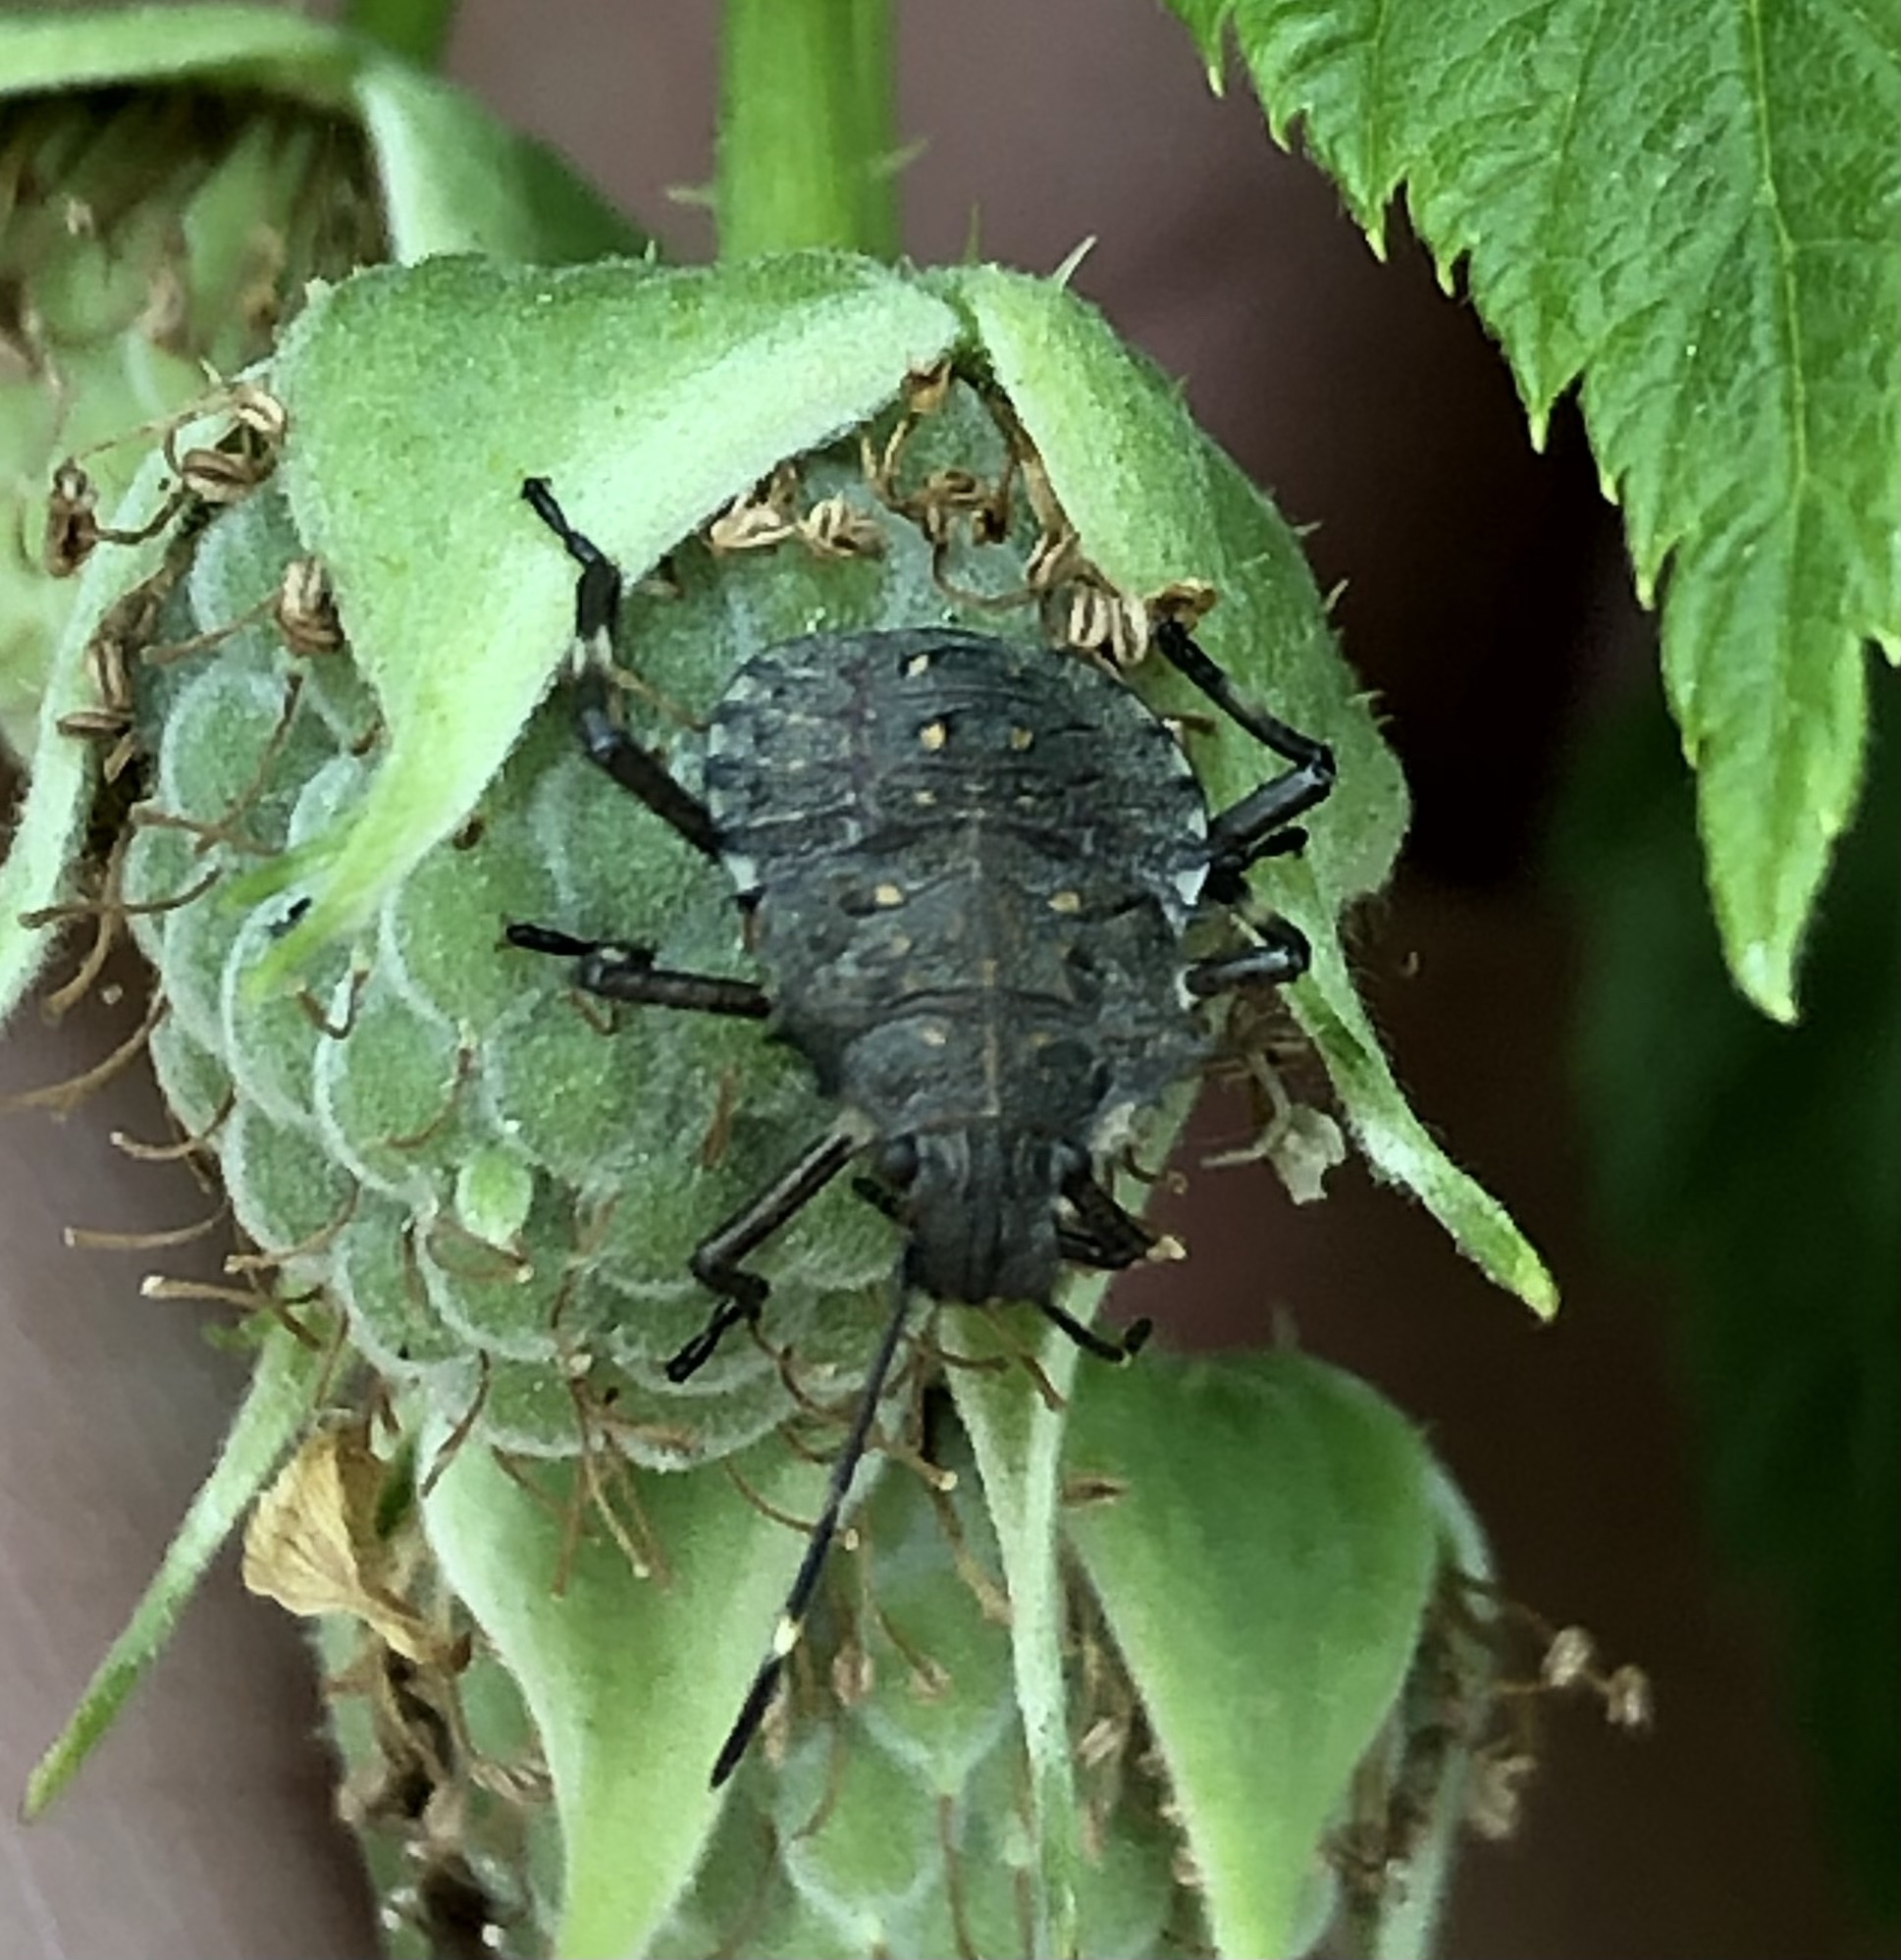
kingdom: Animalia
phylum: Arthropoda
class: Insecta
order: Hemiptera
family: Pentatomidae
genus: Halyomorpha
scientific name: Halyomorpha halys
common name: Brown marmorated stink bug
